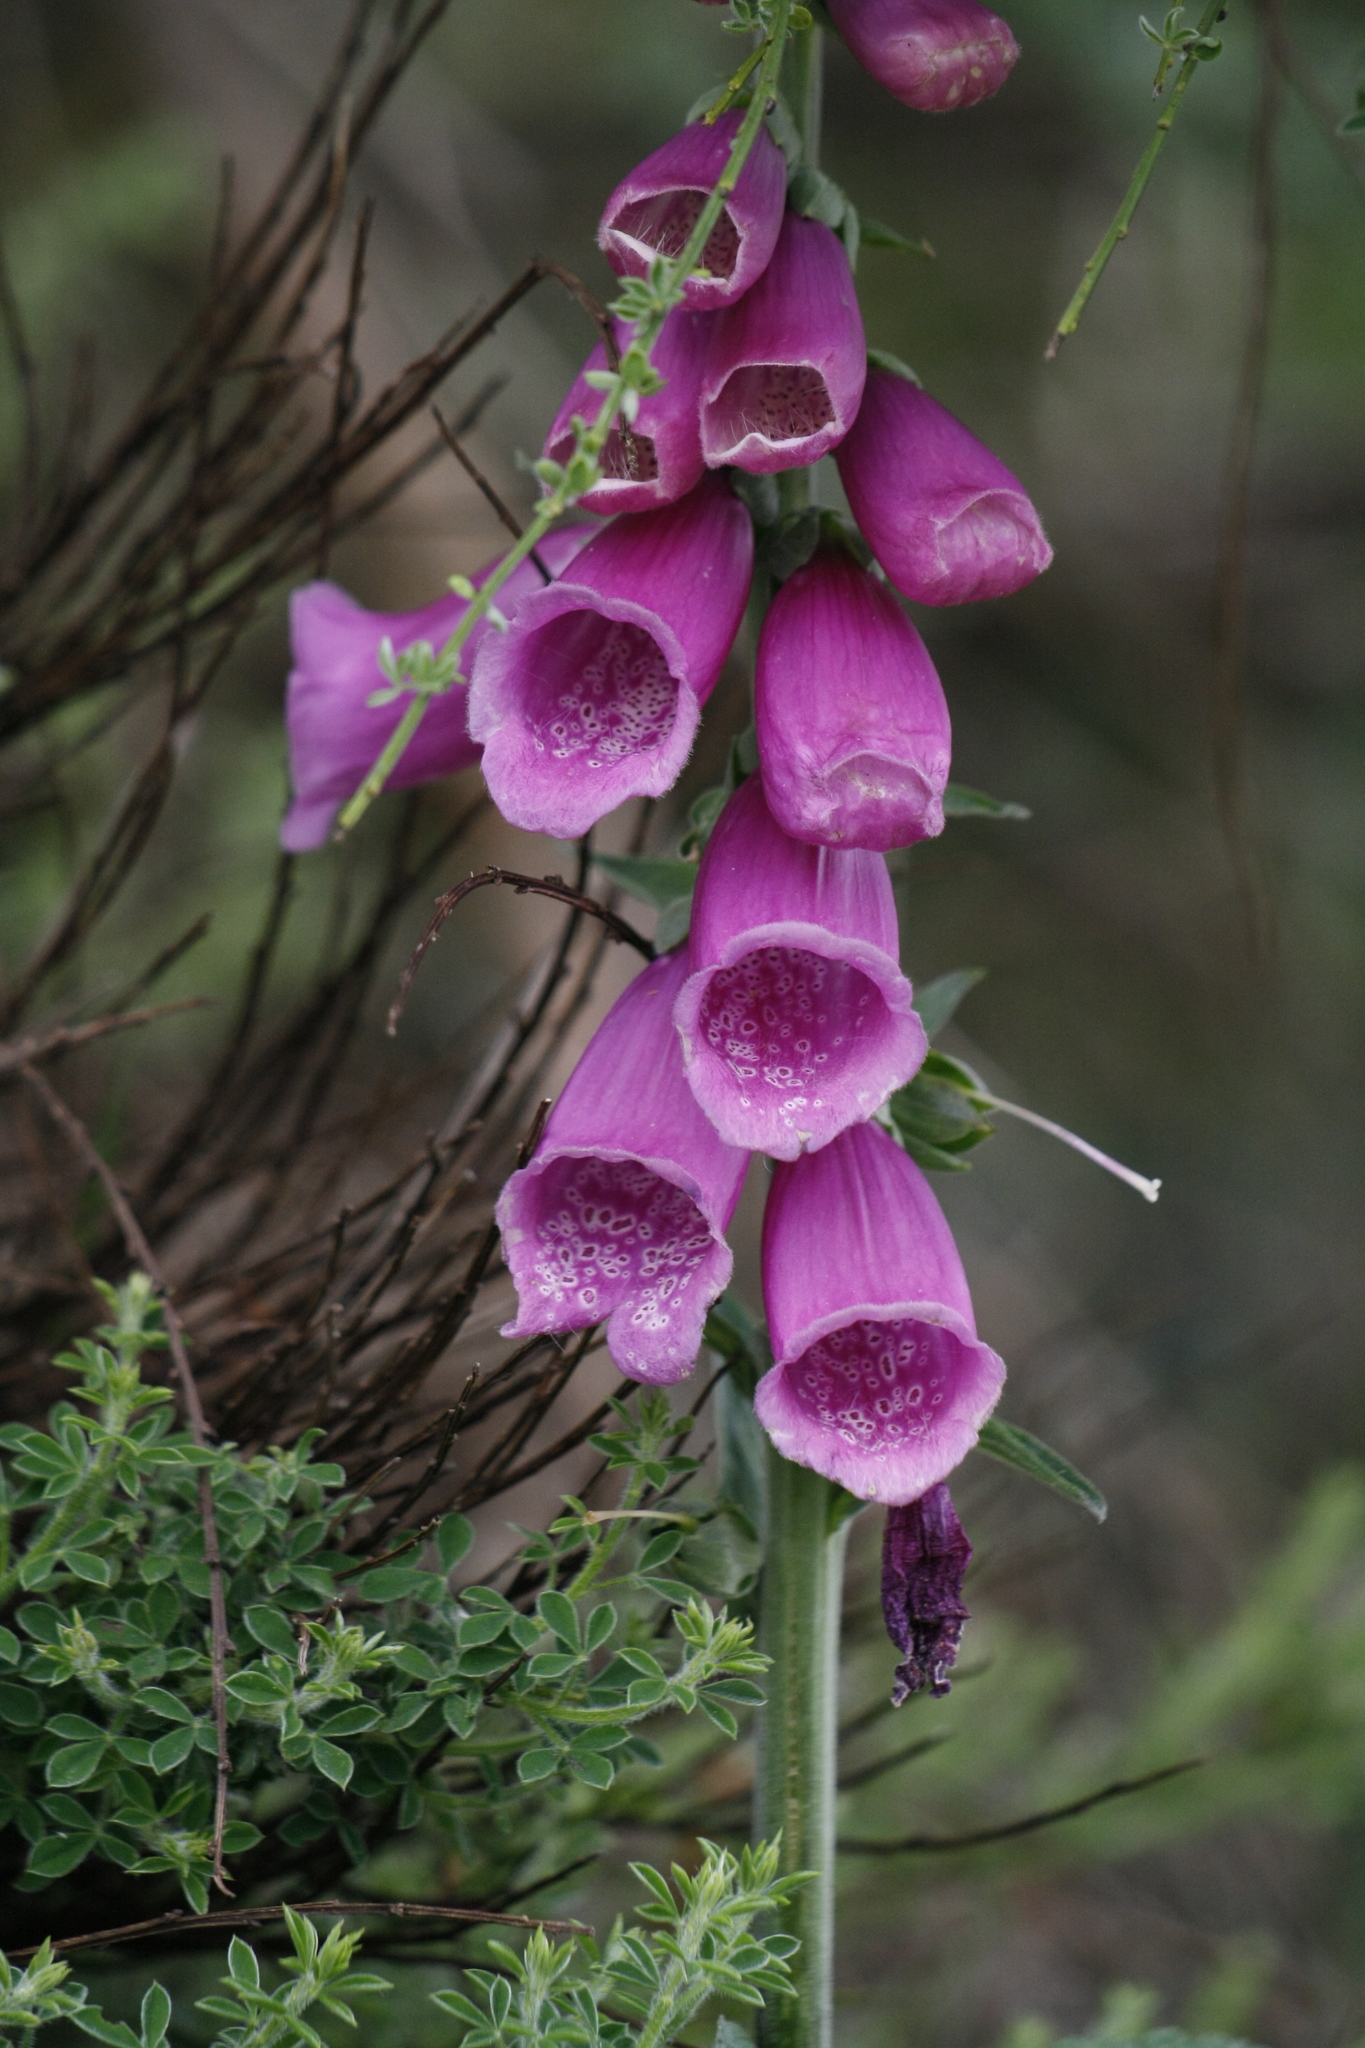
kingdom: Plantae
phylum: Tracheophyta
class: Magnoliopsida
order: Lamiales
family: Plantaginaceae
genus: Digitalis
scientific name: Digitalis purpurea
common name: Foxglove
